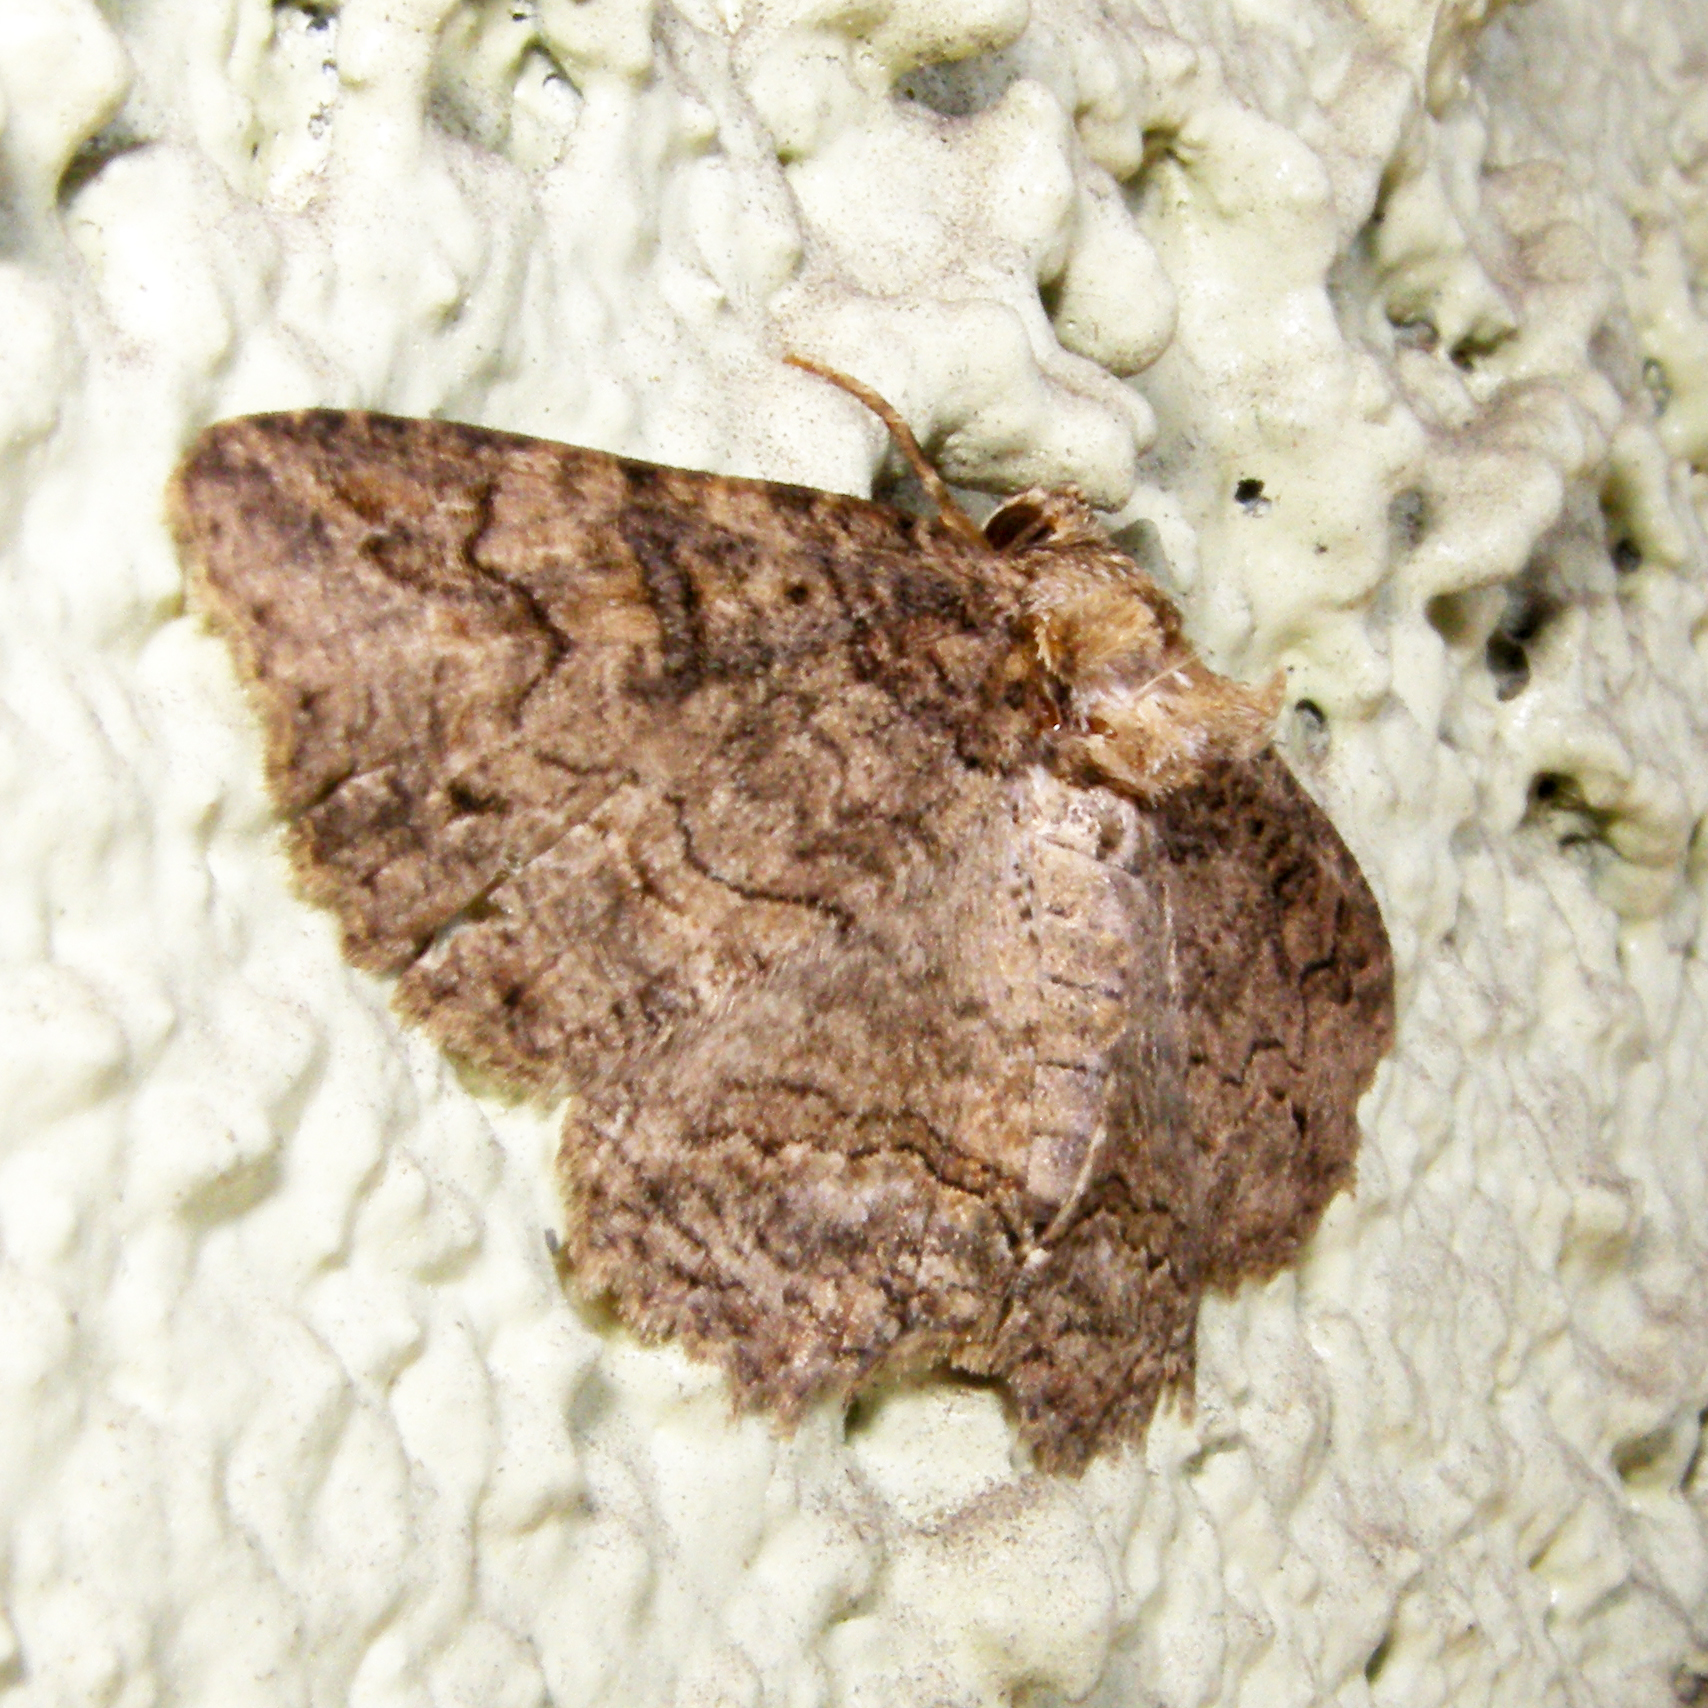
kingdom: Animalia
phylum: Arthropoda
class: Insecta
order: Lepidoptera
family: Erebidae
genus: Zale
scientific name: Zale galbanata
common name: Maple zale
